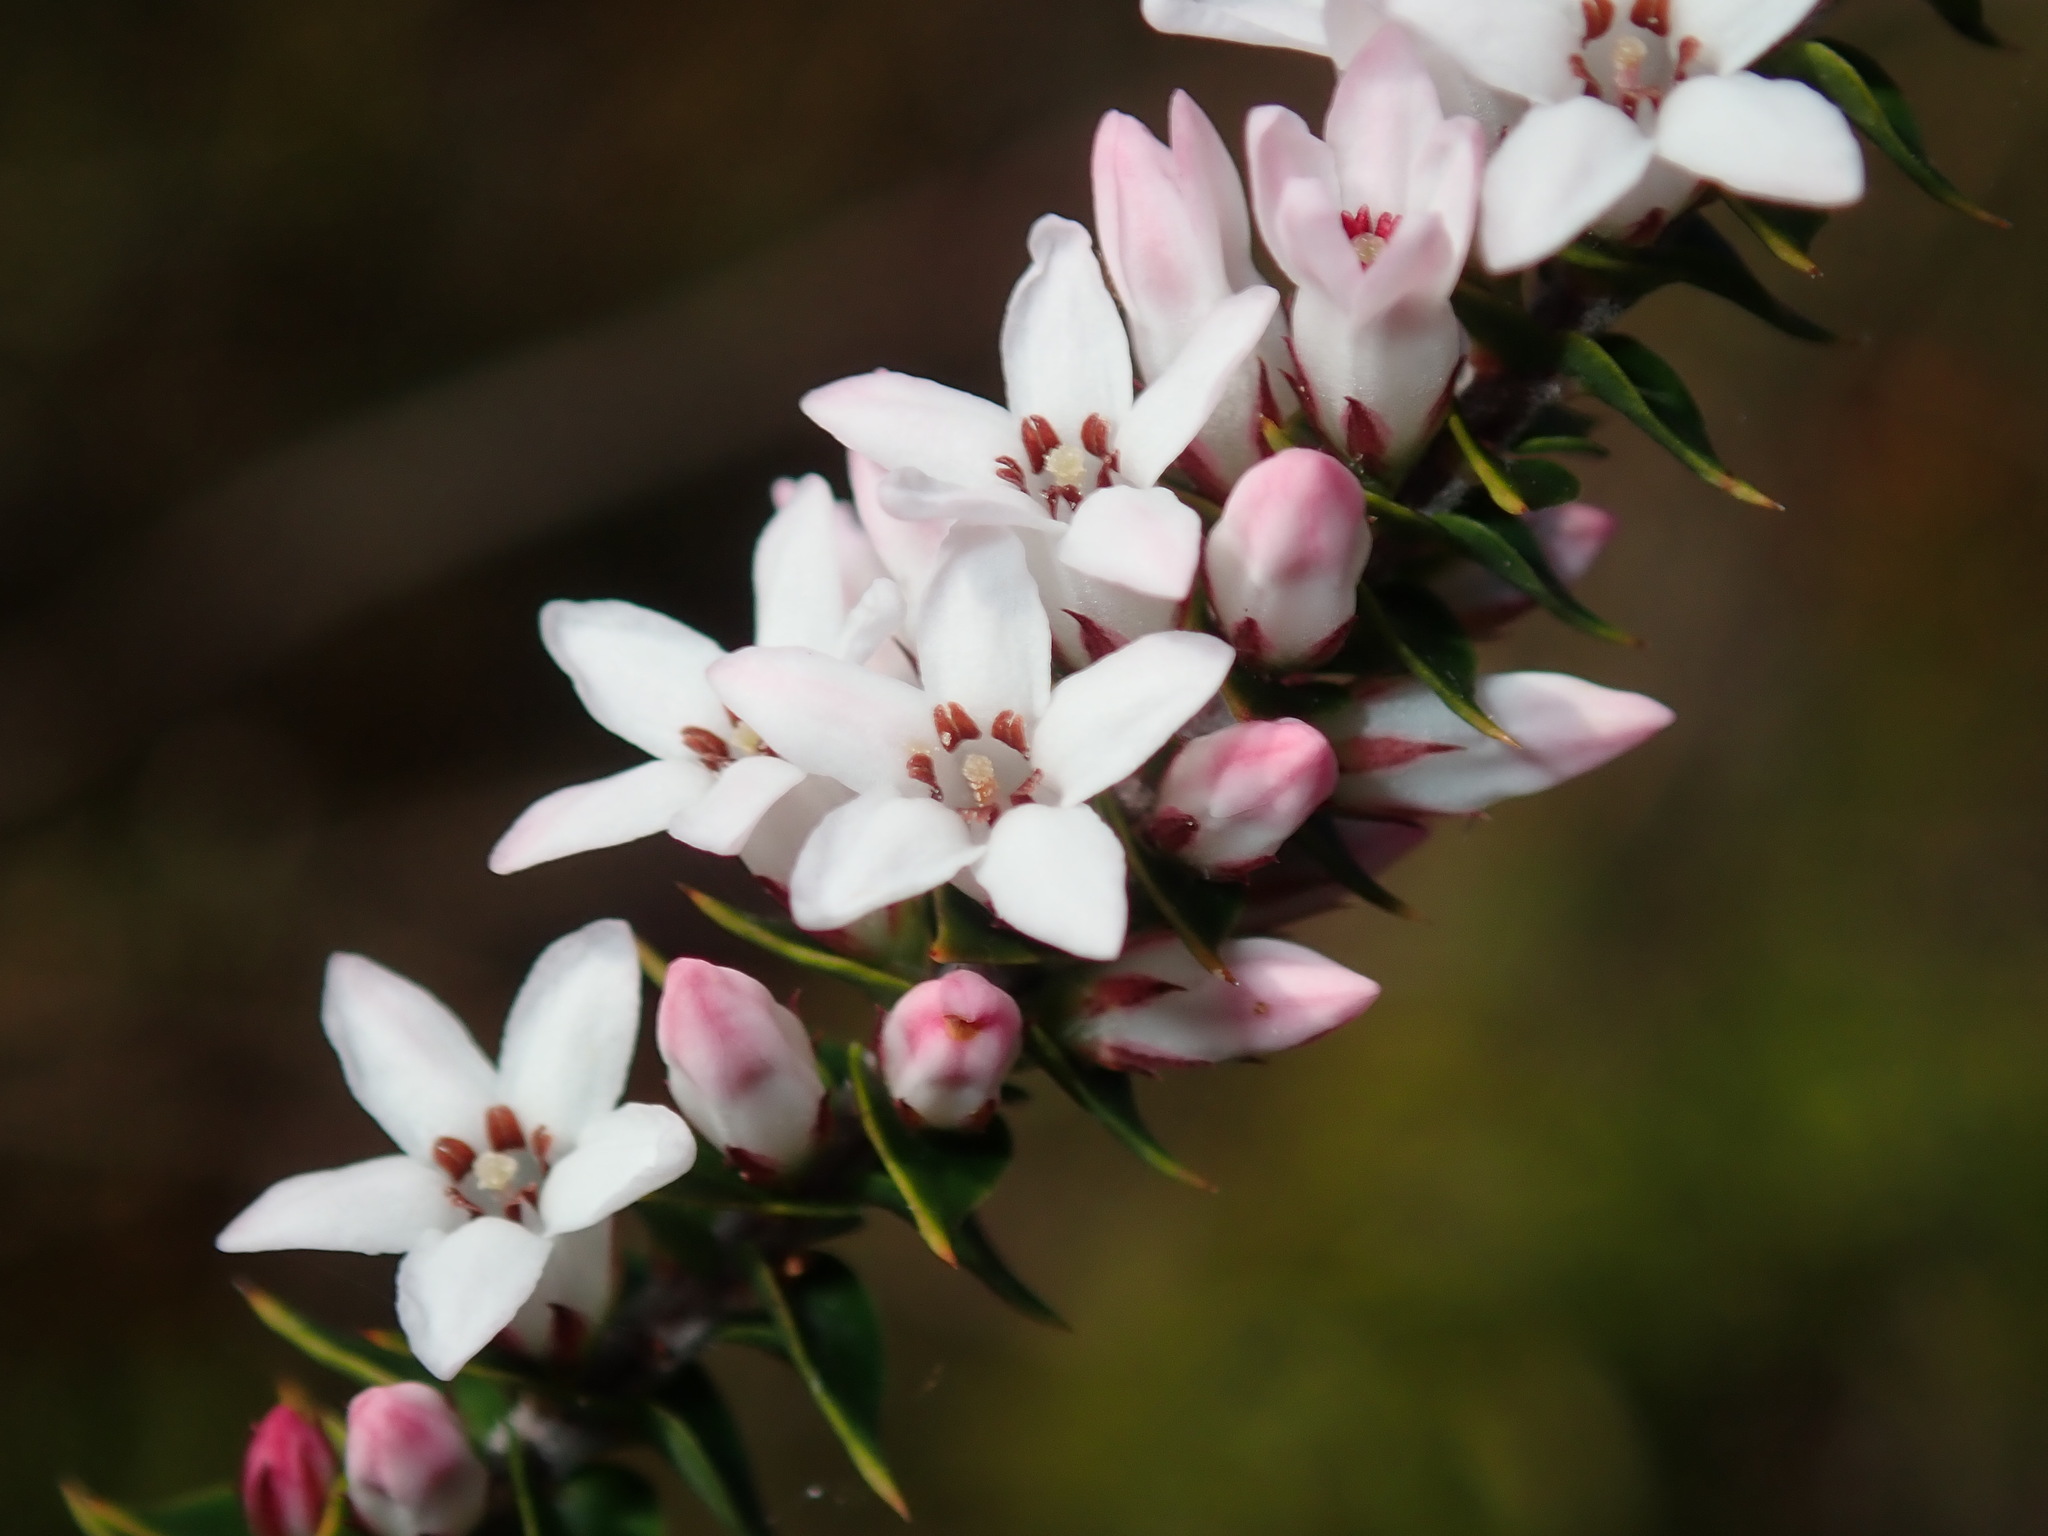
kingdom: Plantae
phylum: Tracheophyta
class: Magnoliopsida
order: Ericales
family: Ericaceae
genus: Epacris
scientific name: Epacris pulchella
